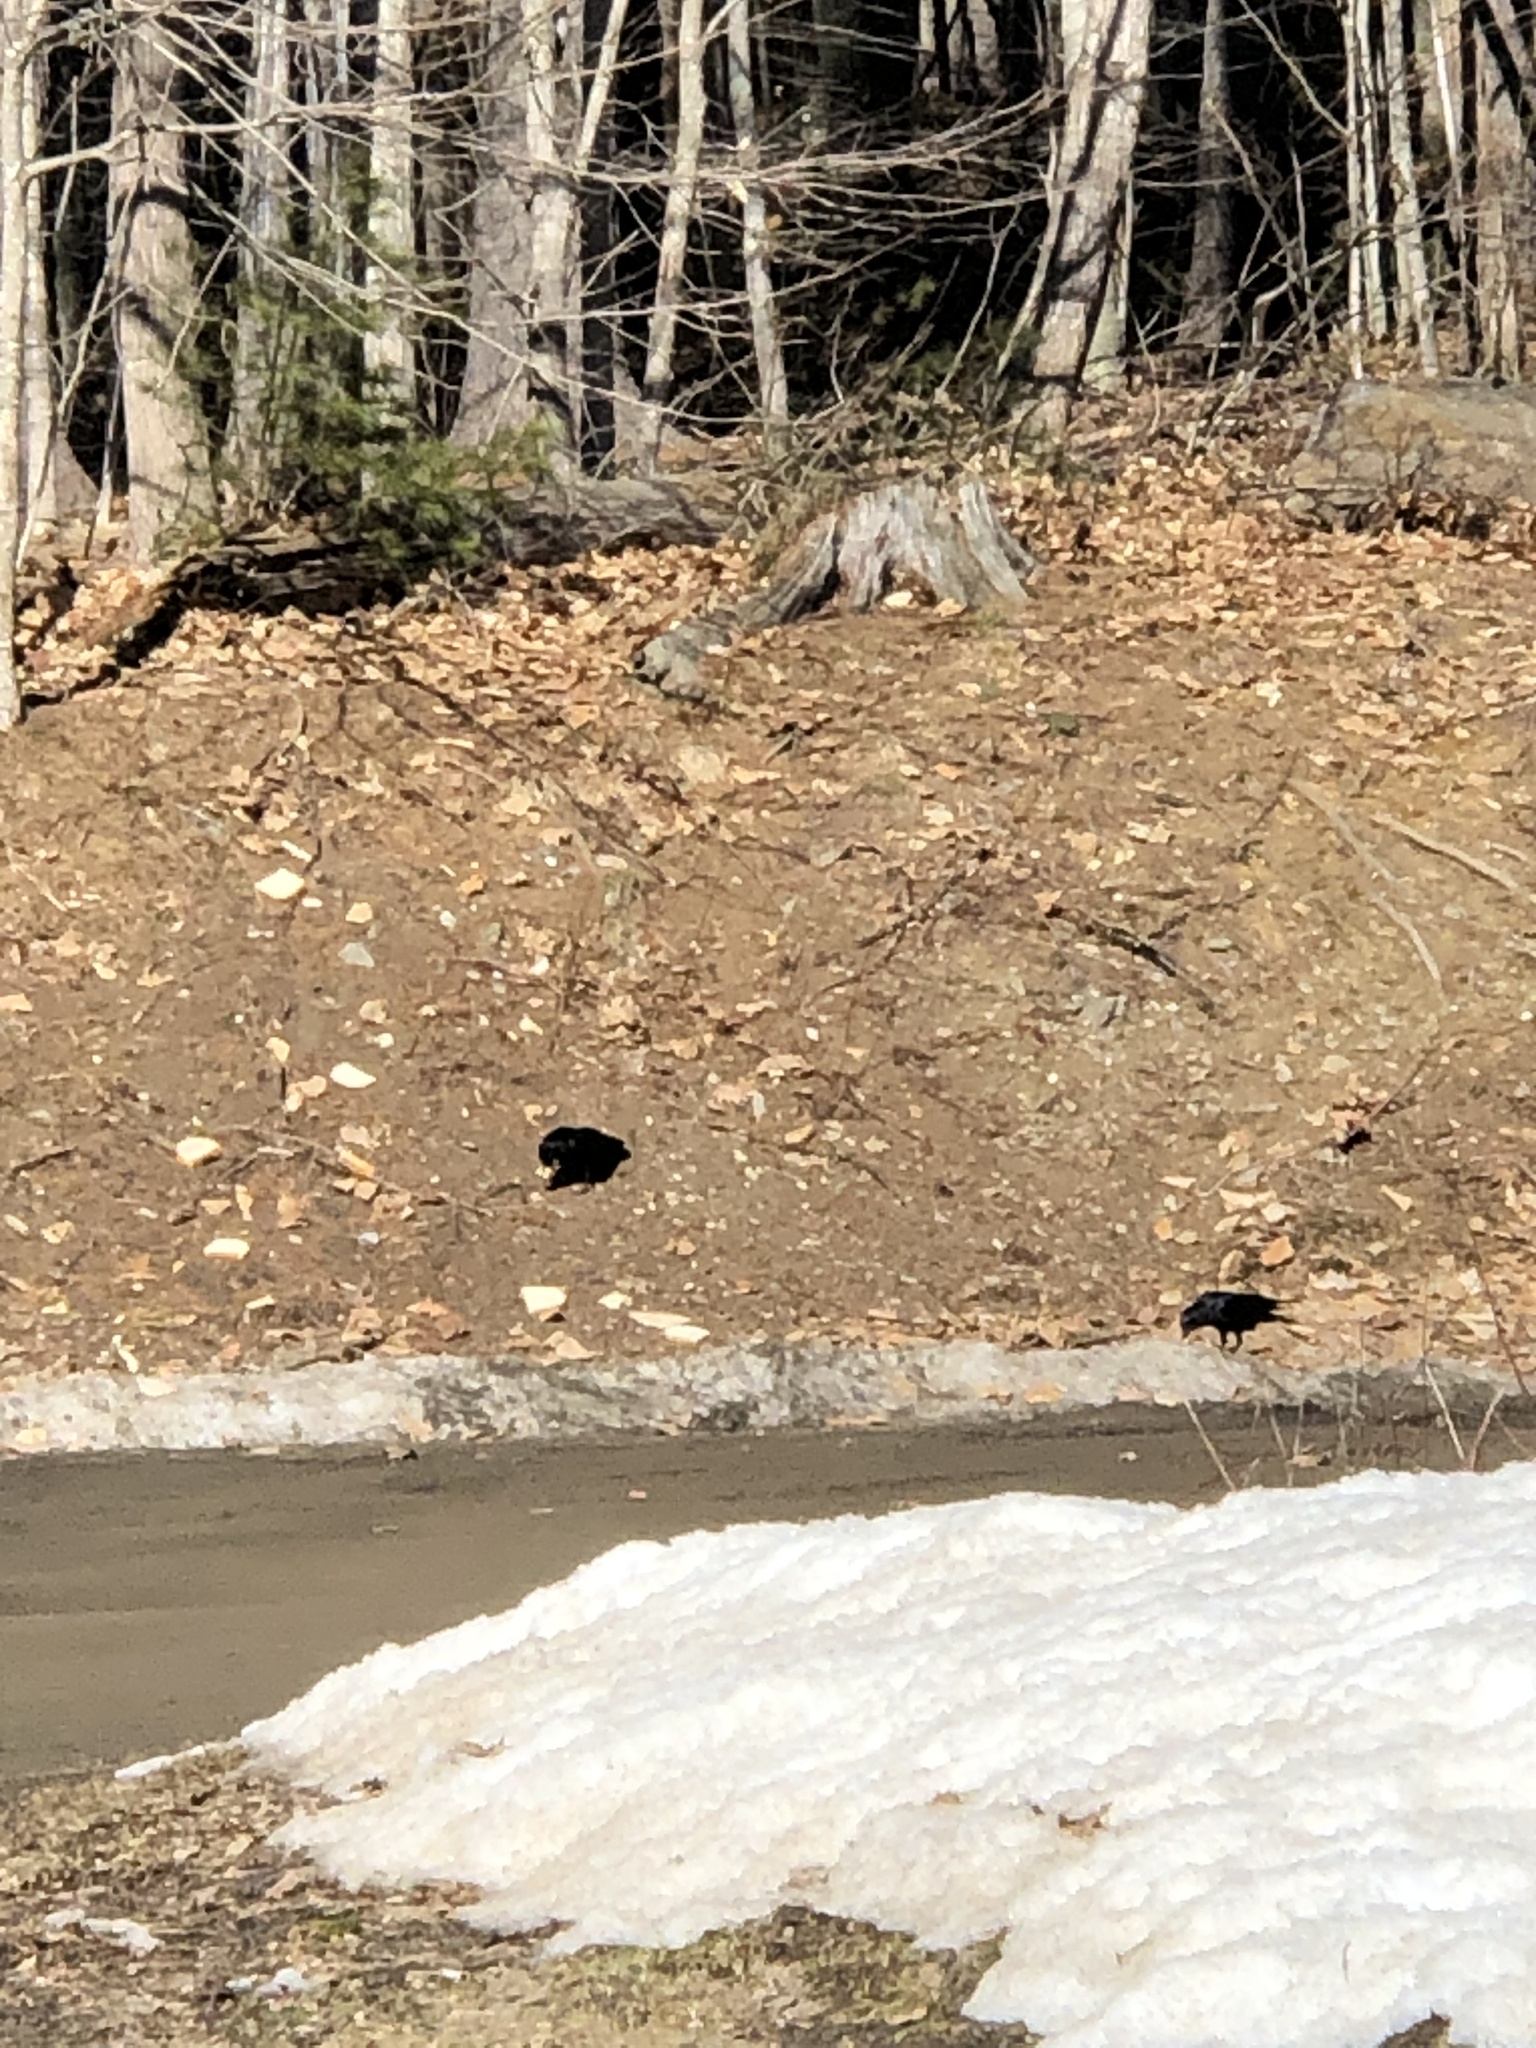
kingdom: Animalia
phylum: Chordata
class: Aves
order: Passeriformes
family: Corvidae
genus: Corvus
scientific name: Corvus brachyrhynchos
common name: American crow
